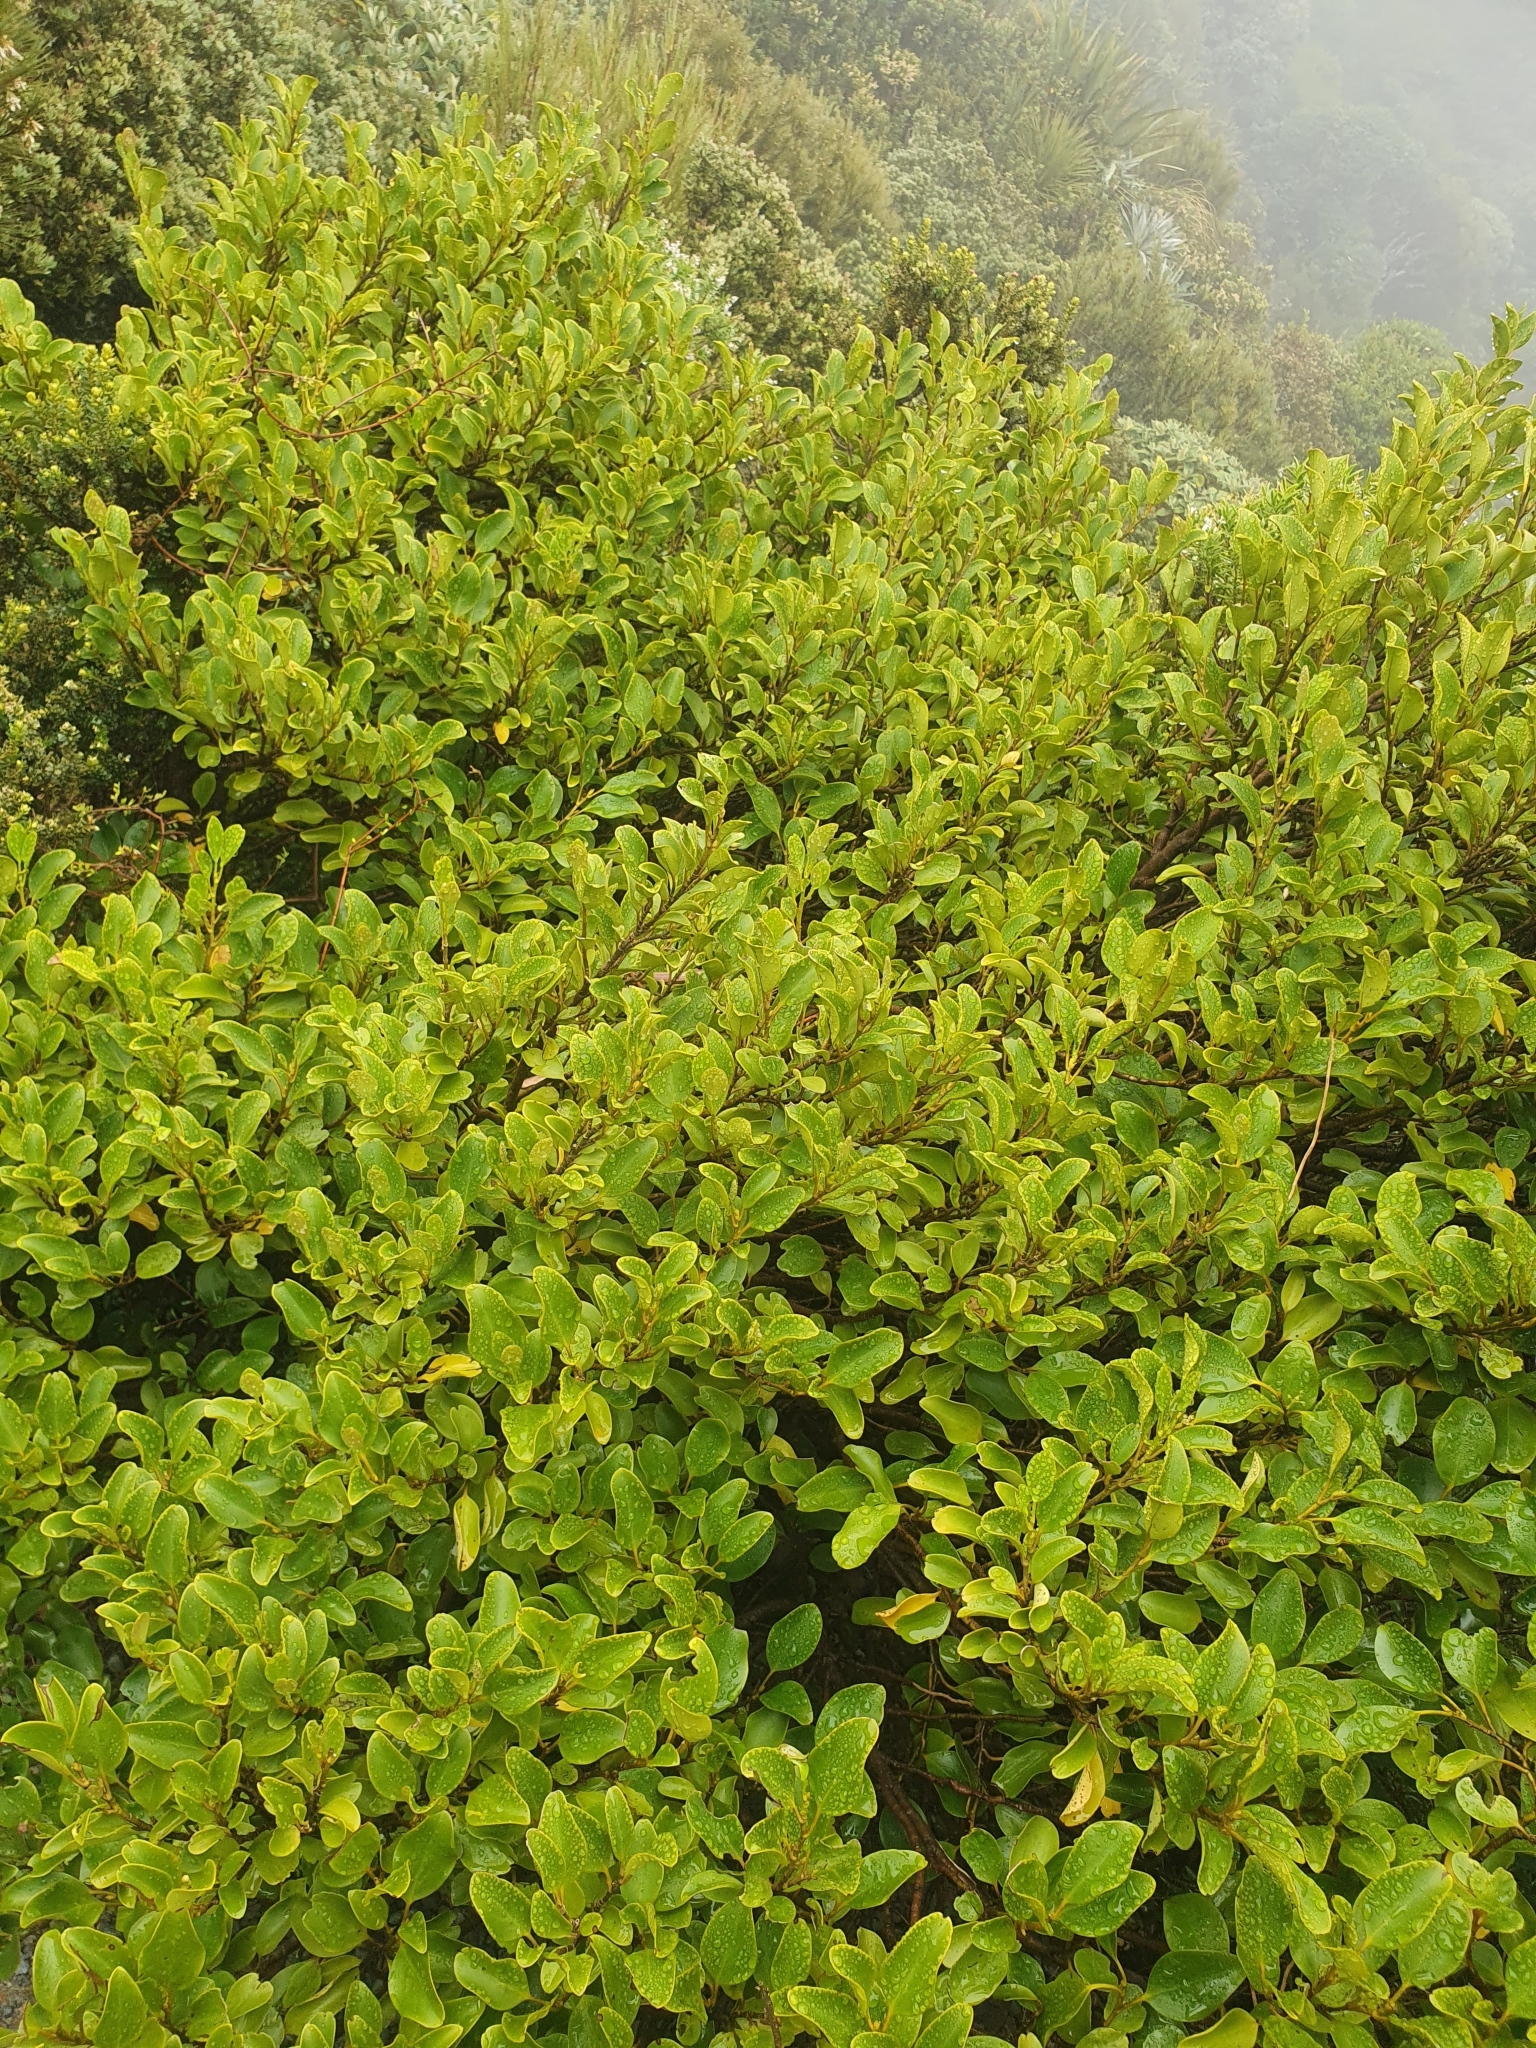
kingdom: Plantae
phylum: Tracheophyta
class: Magnoliopsida
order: Apiales
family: Griseliniaceae
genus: Griselinia
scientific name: Griselinia littoralis
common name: New zealand broadleaf
